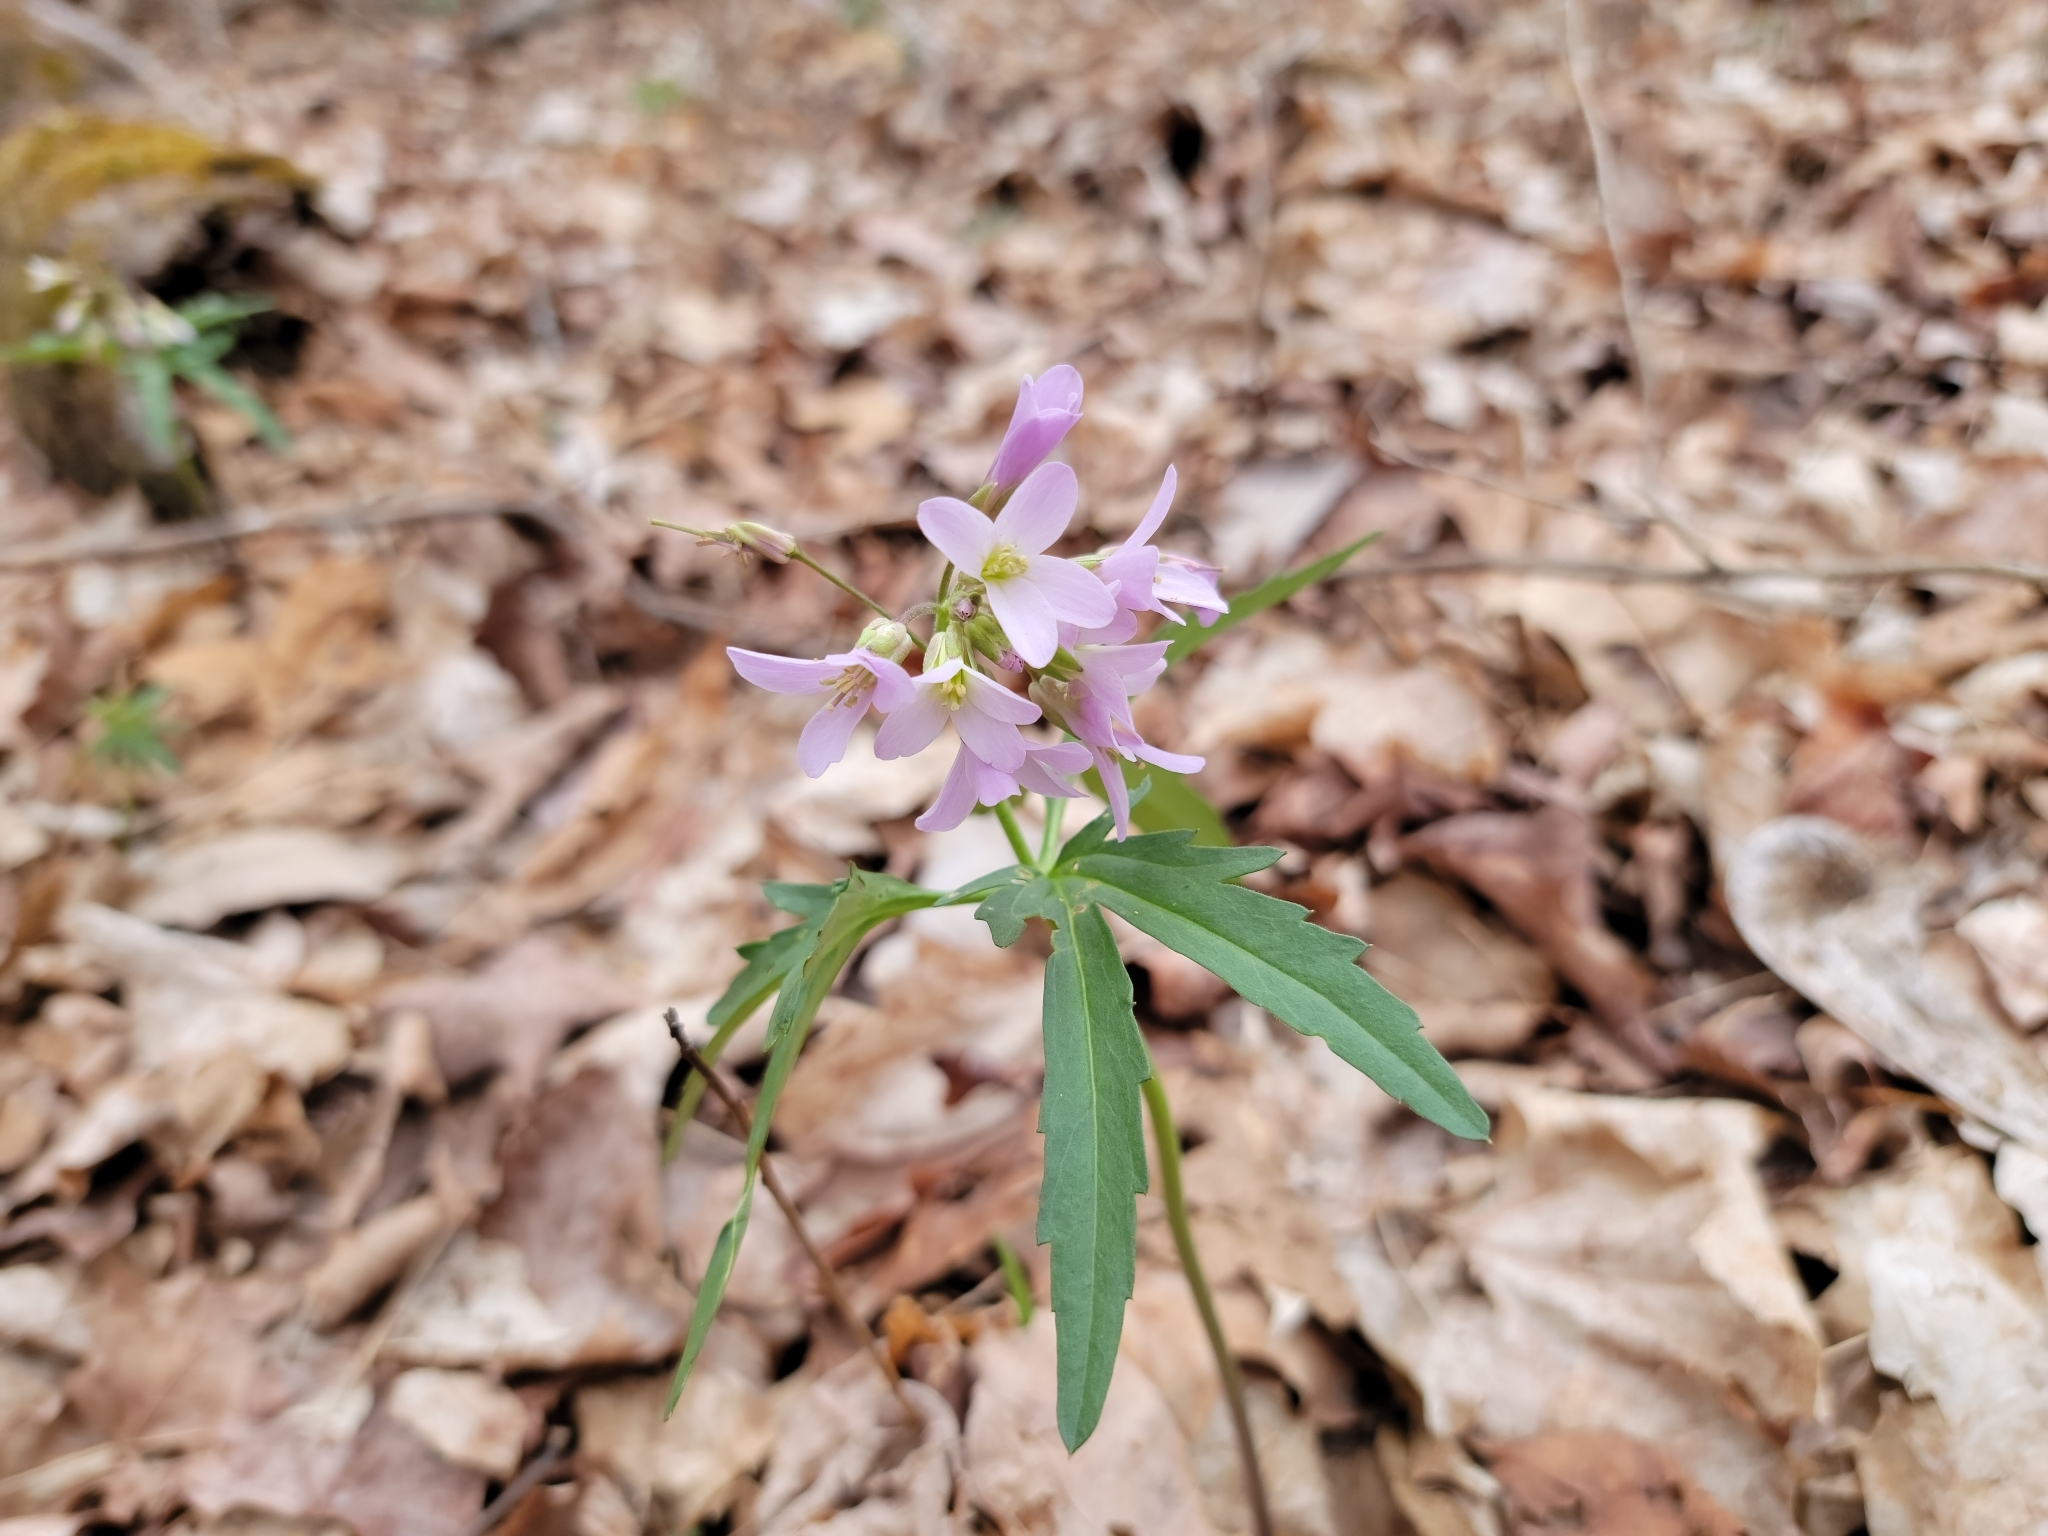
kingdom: Plantae
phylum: Tracheophyta
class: Magnoliopsida
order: Brassicales
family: Brassicaceae
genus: Cardamine
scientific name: Cardamine concatenata
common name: Cut-leaf toothcup
